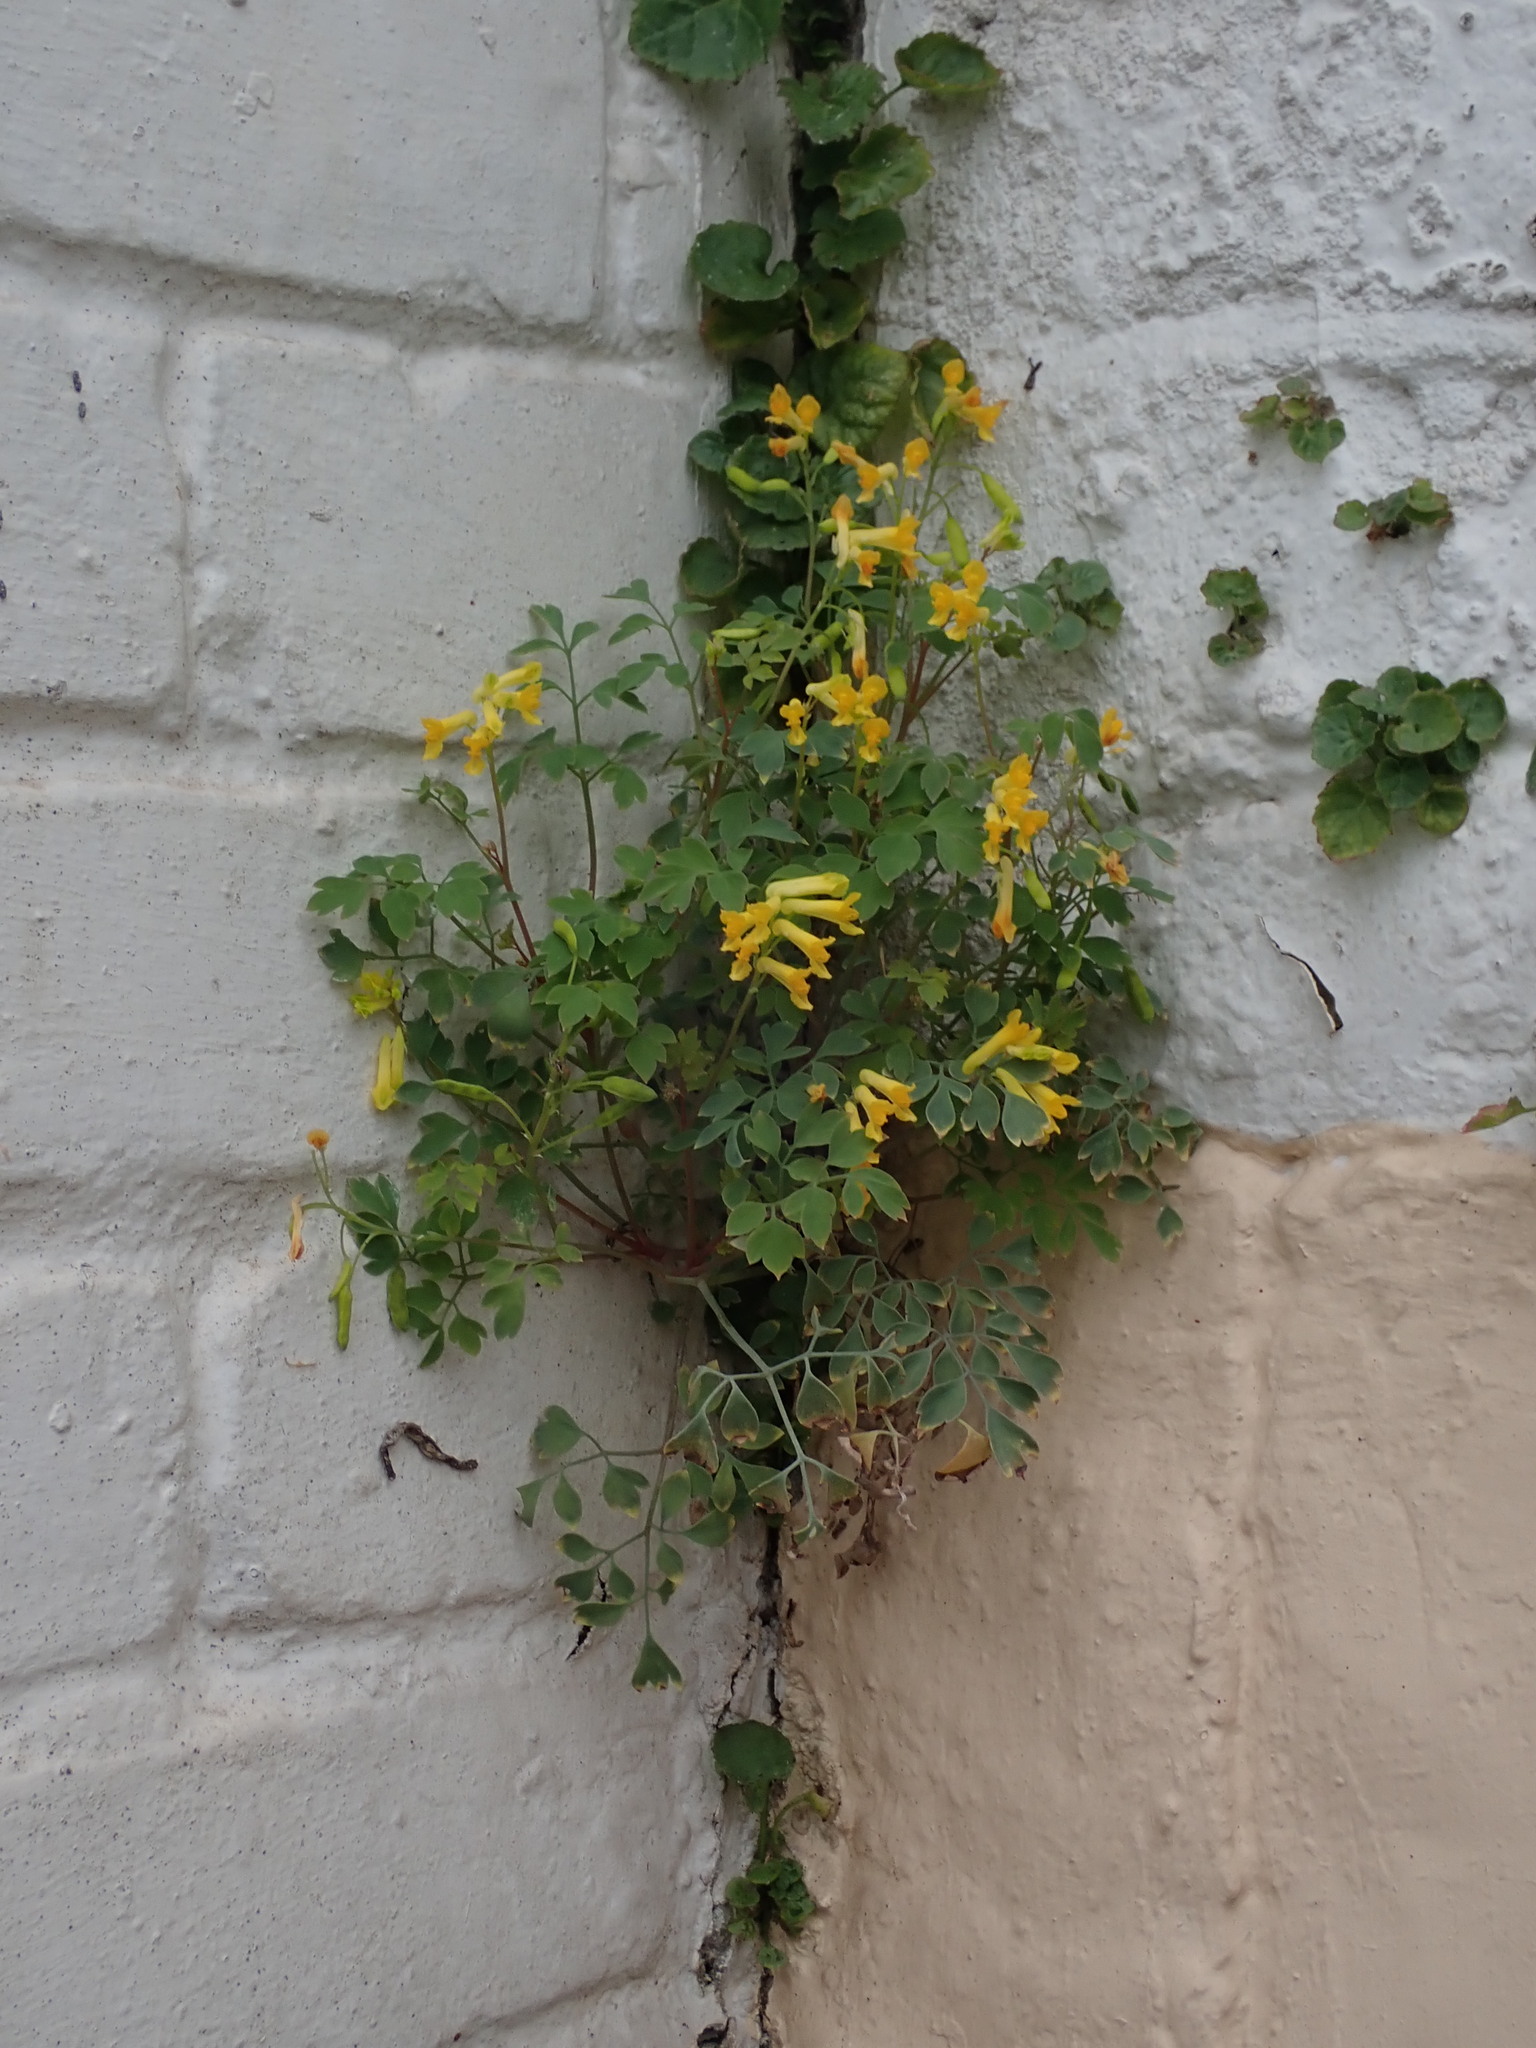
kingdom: Plantae
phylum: Tracheophyta
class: Magnoliopsida
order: Ranunculales
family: Papaveraceae
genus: Pseudofumaria
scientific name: Pseudofumaria lutea
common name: Yellow corydalis
